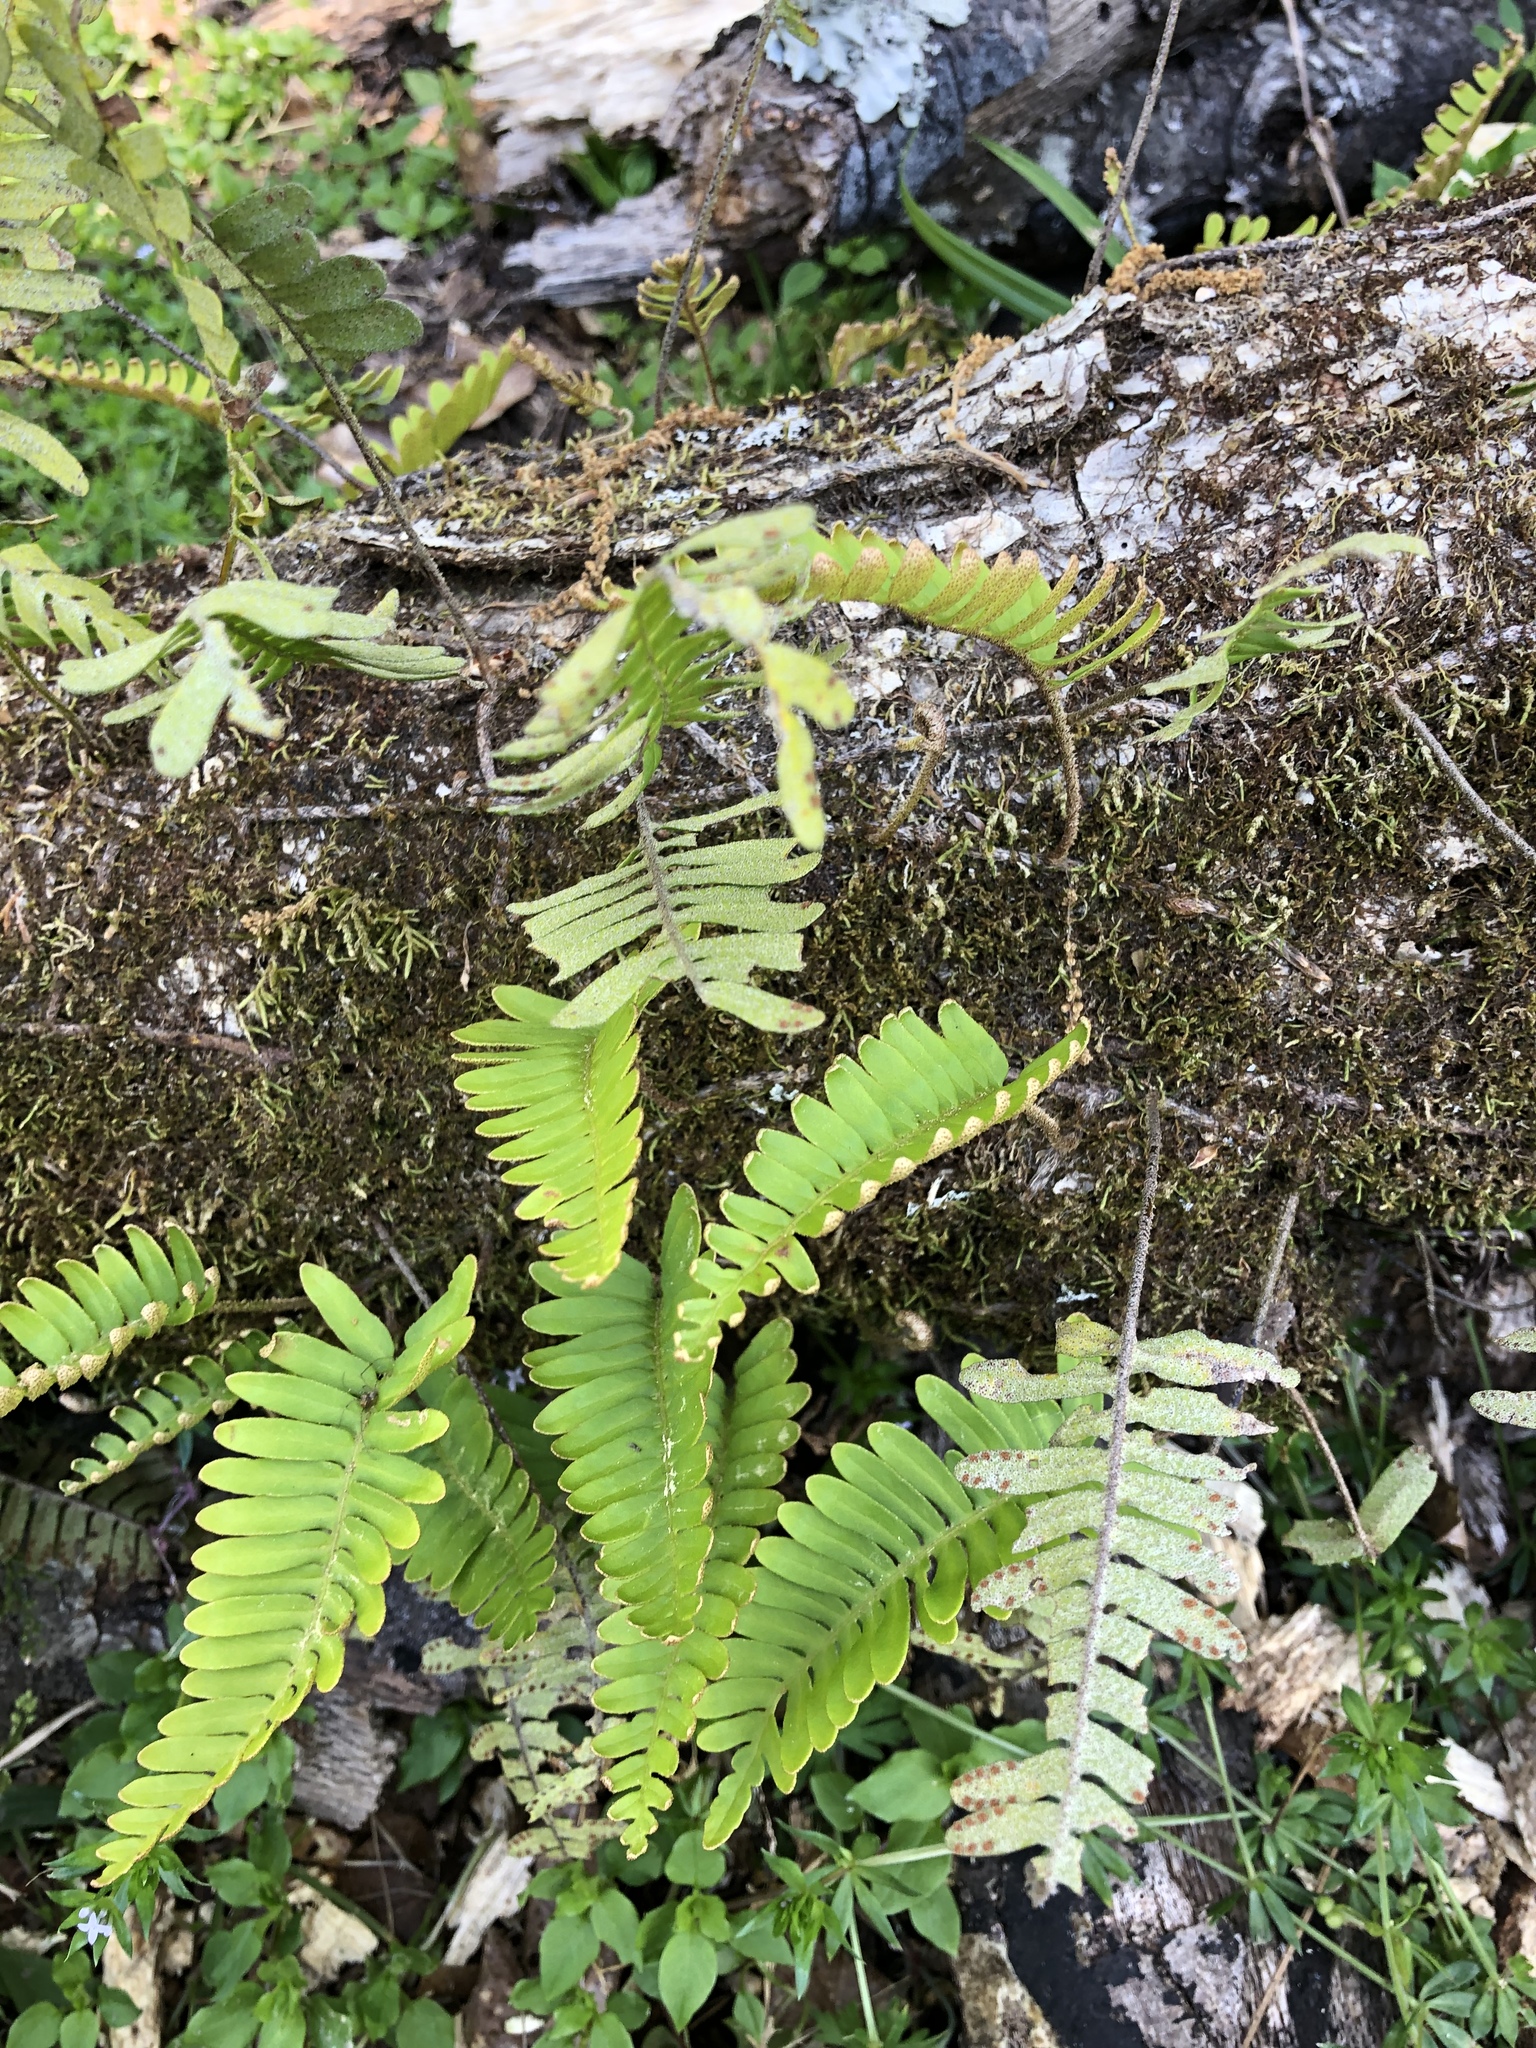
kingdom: Plantae
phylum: Tracheophyta
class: Polypodiopsida
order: Polypodiales
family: Polypodiaceae
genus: Pleopeltis
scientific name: Pleopeltis michauxiana
